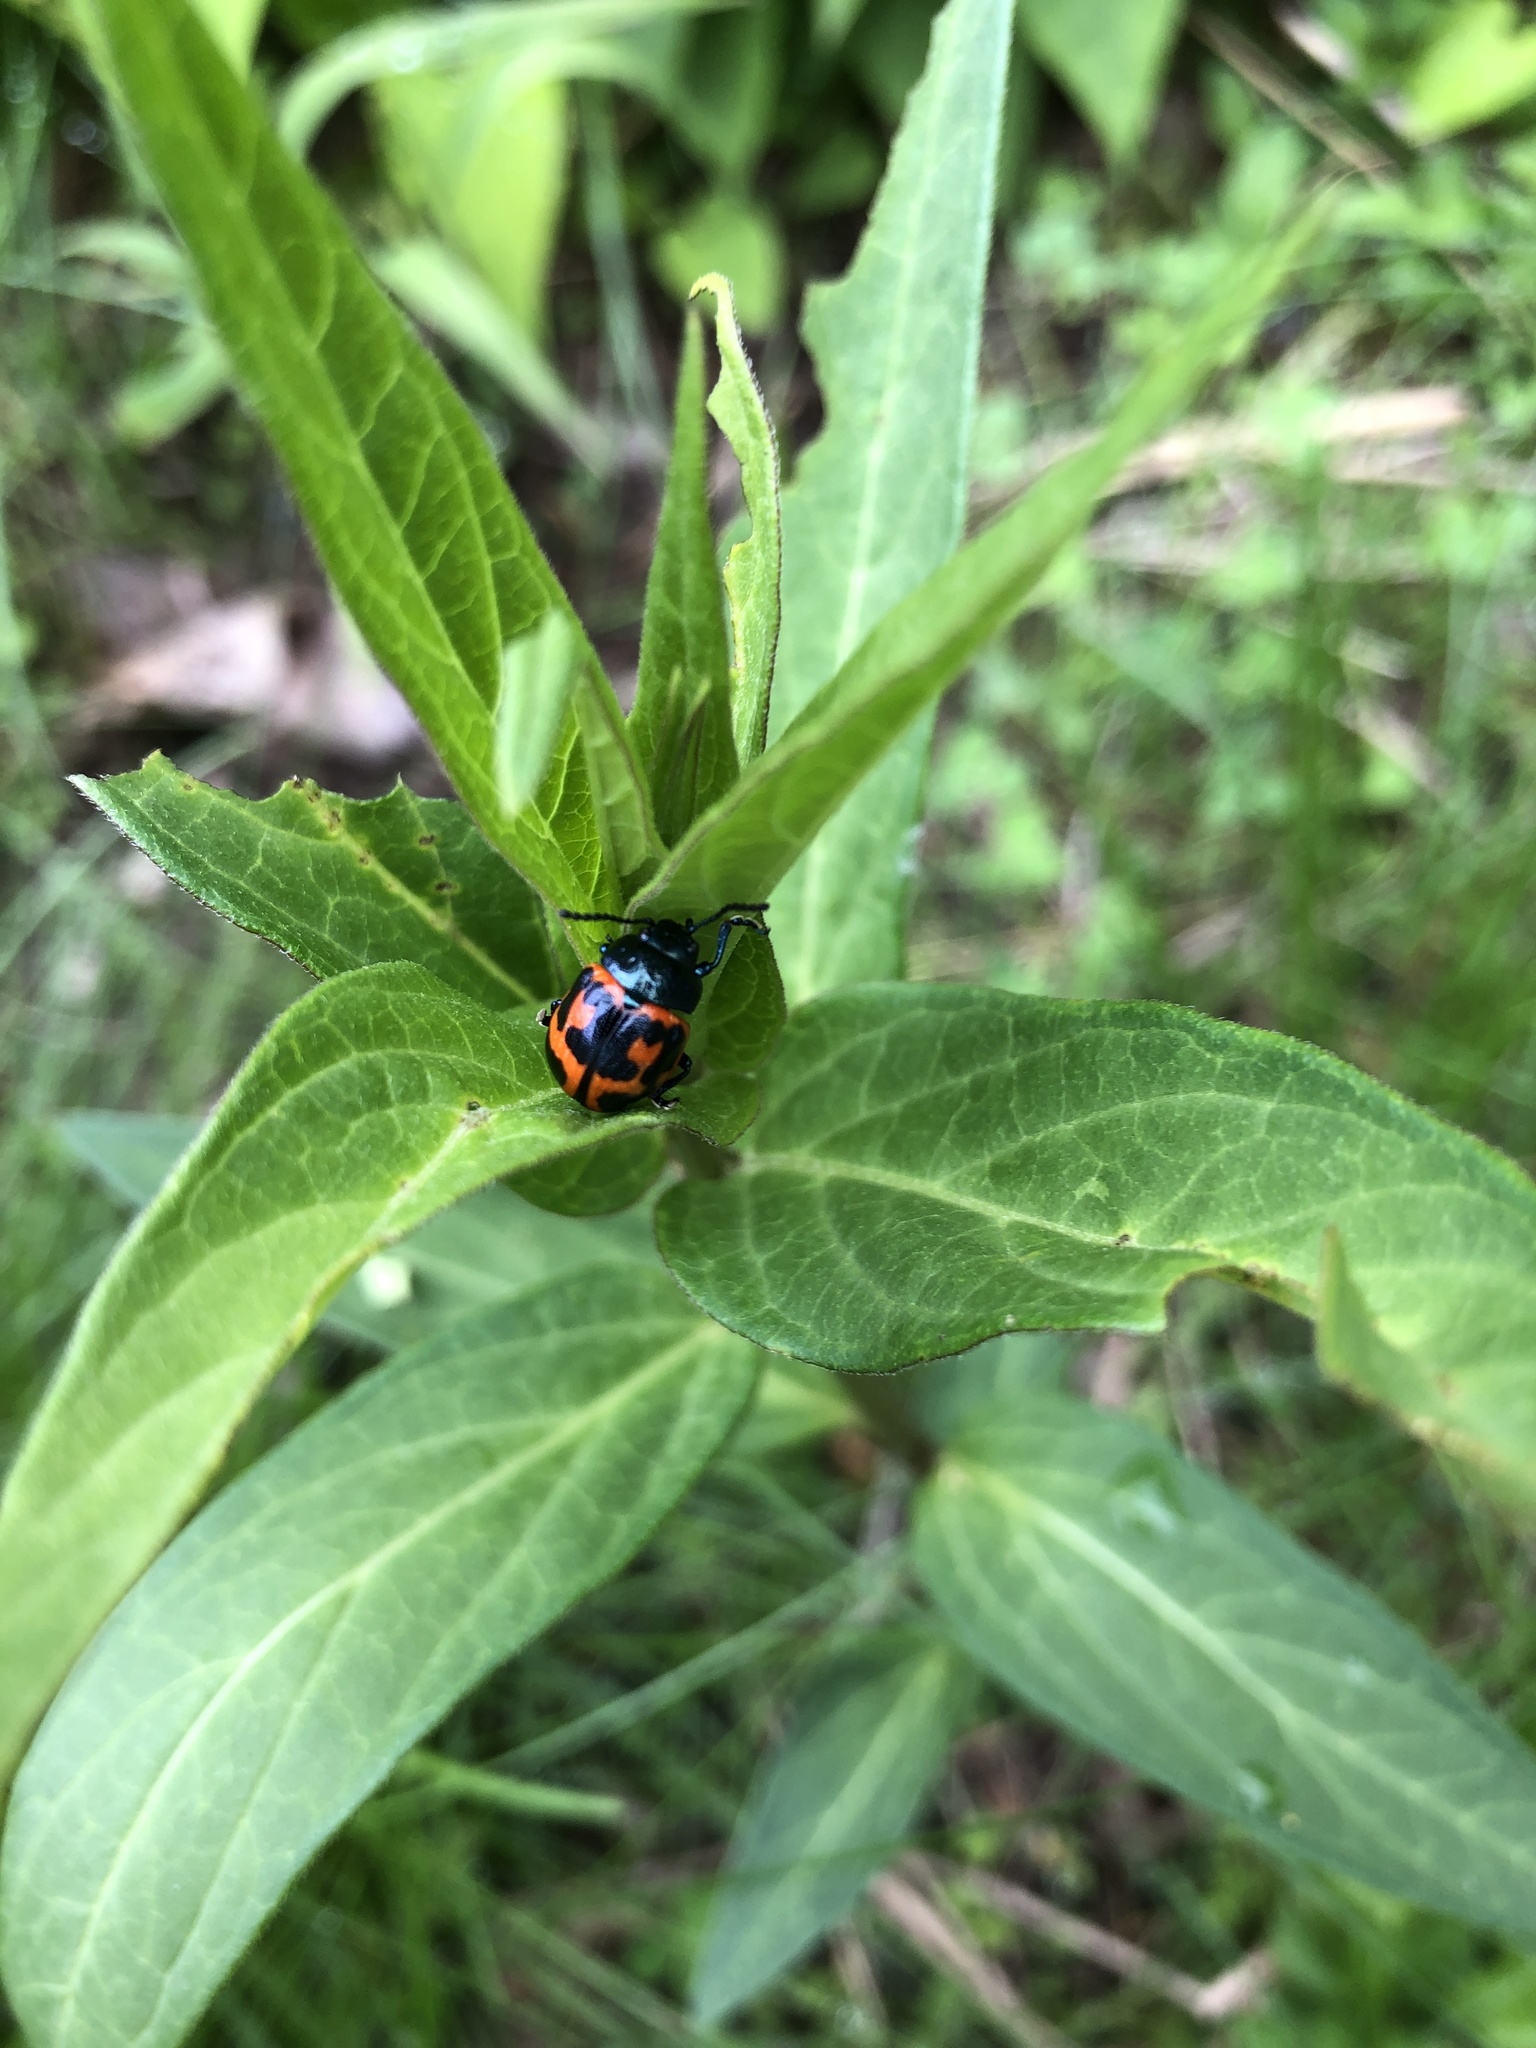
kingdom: Animalia
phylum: Arthropoda
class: Insecta
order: Coleoptera
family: Chrysomelidae
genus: Labidomera
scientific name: Labidomera clivicollis
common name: Swamp milkweed leaf beetle
